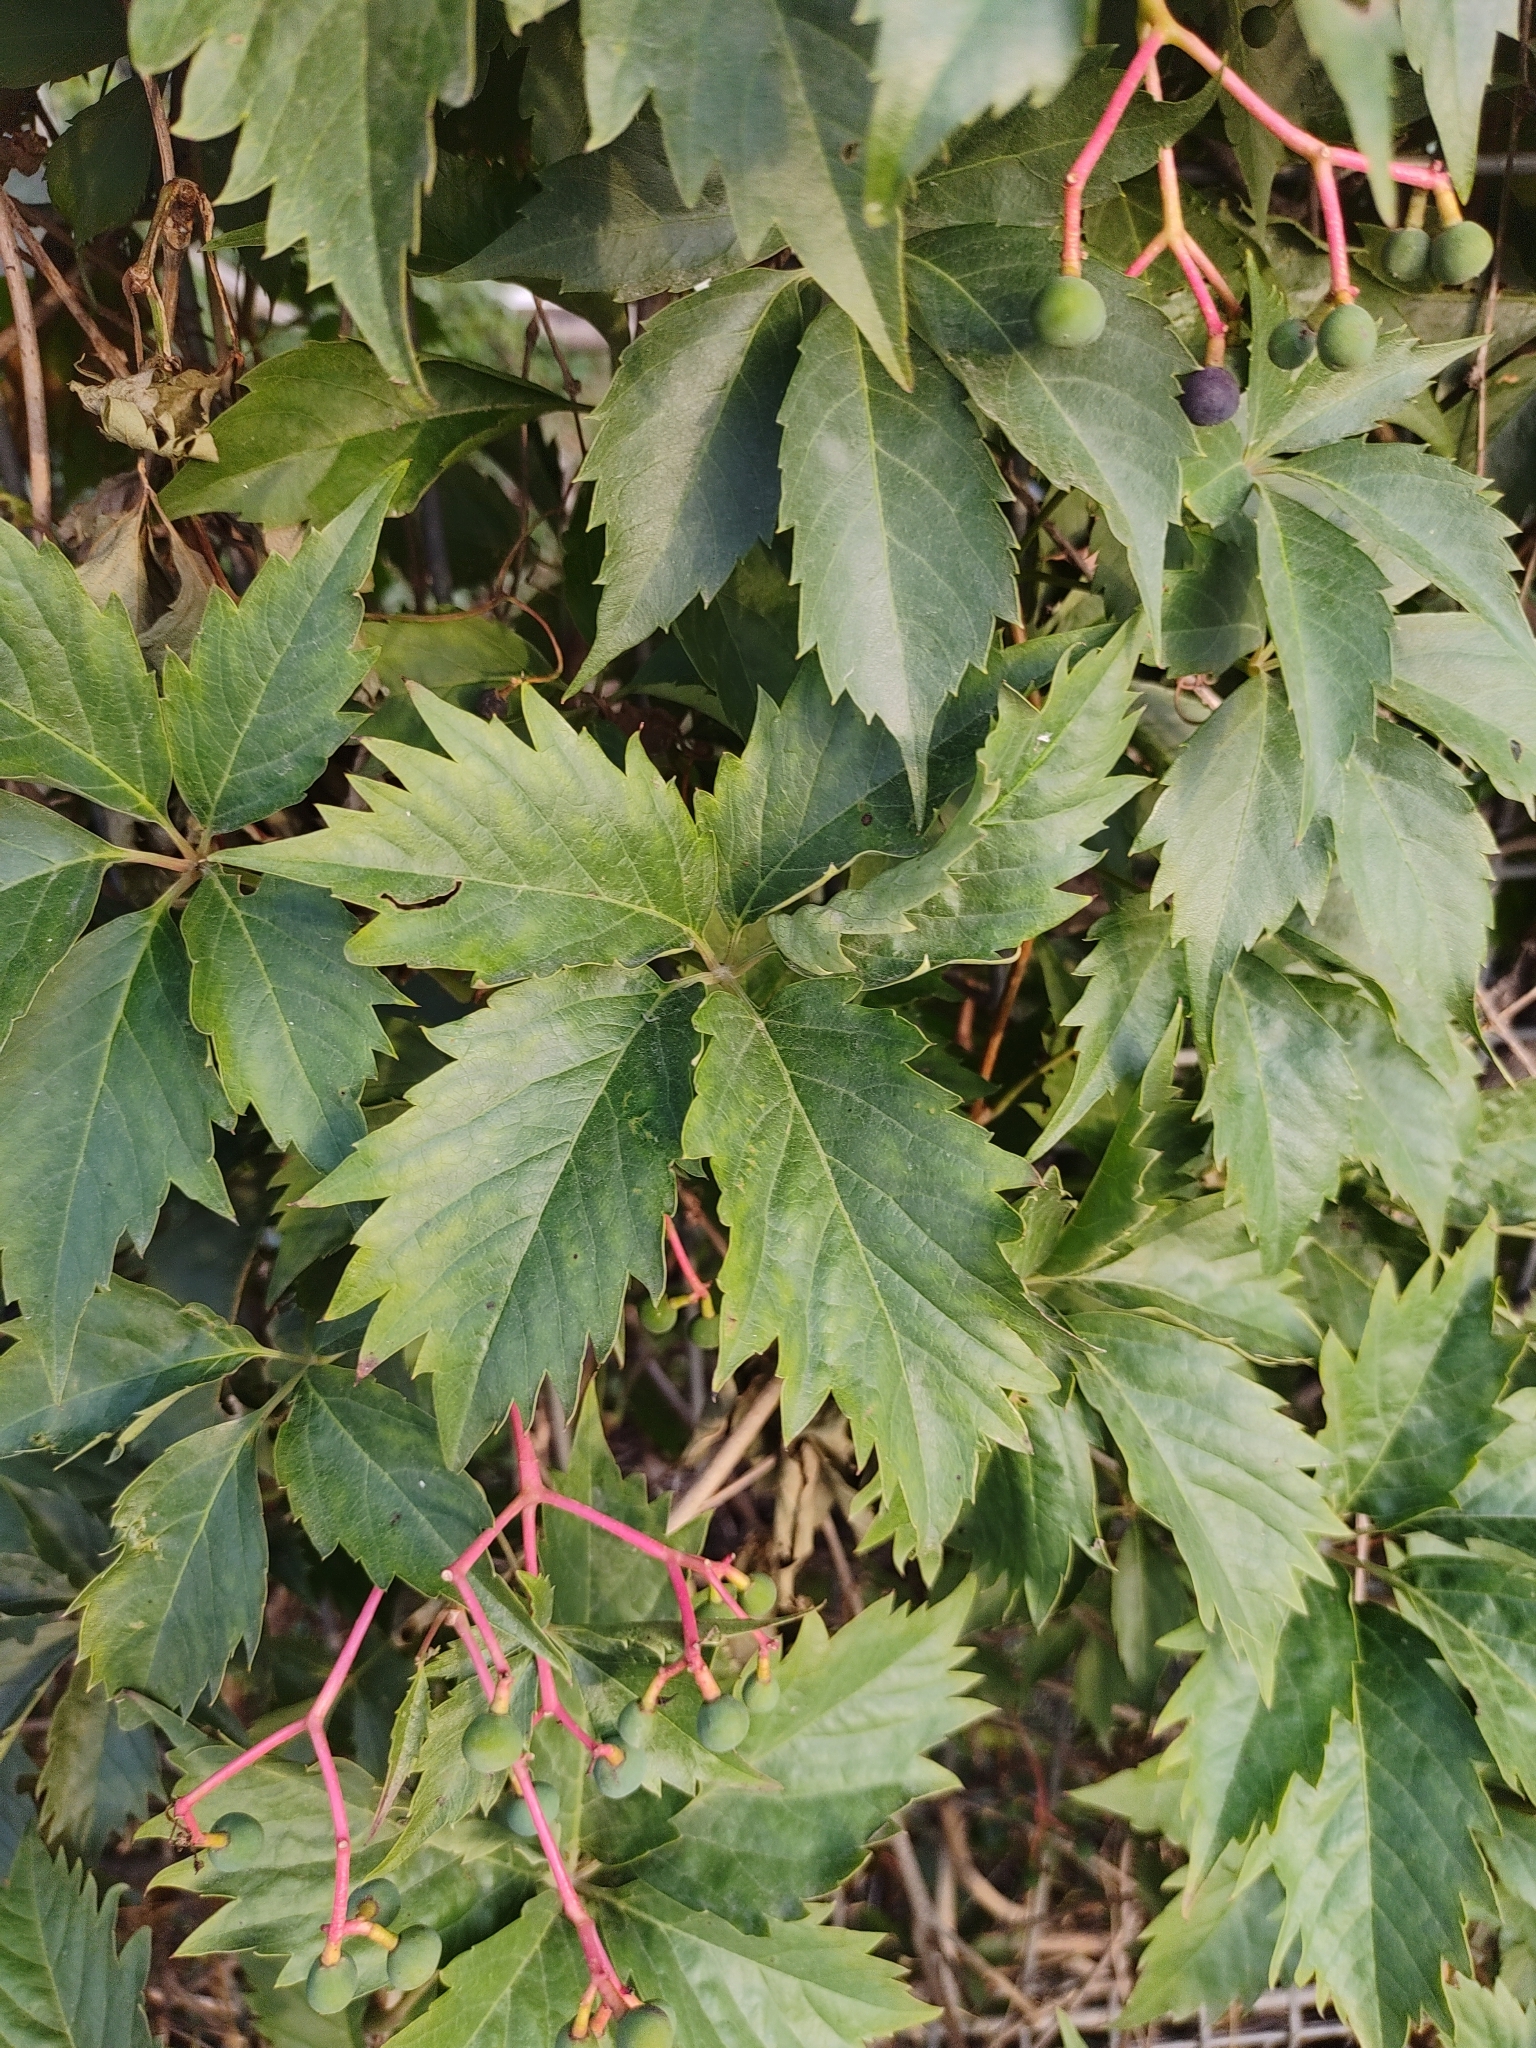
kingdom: Plantae
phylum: Tracheophyta
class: Magnoliopsida
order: Vitales
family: Vitaceae
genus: Parthenocissus
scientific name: Parthenocissus quinquefolia
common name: Virginia-creeper
